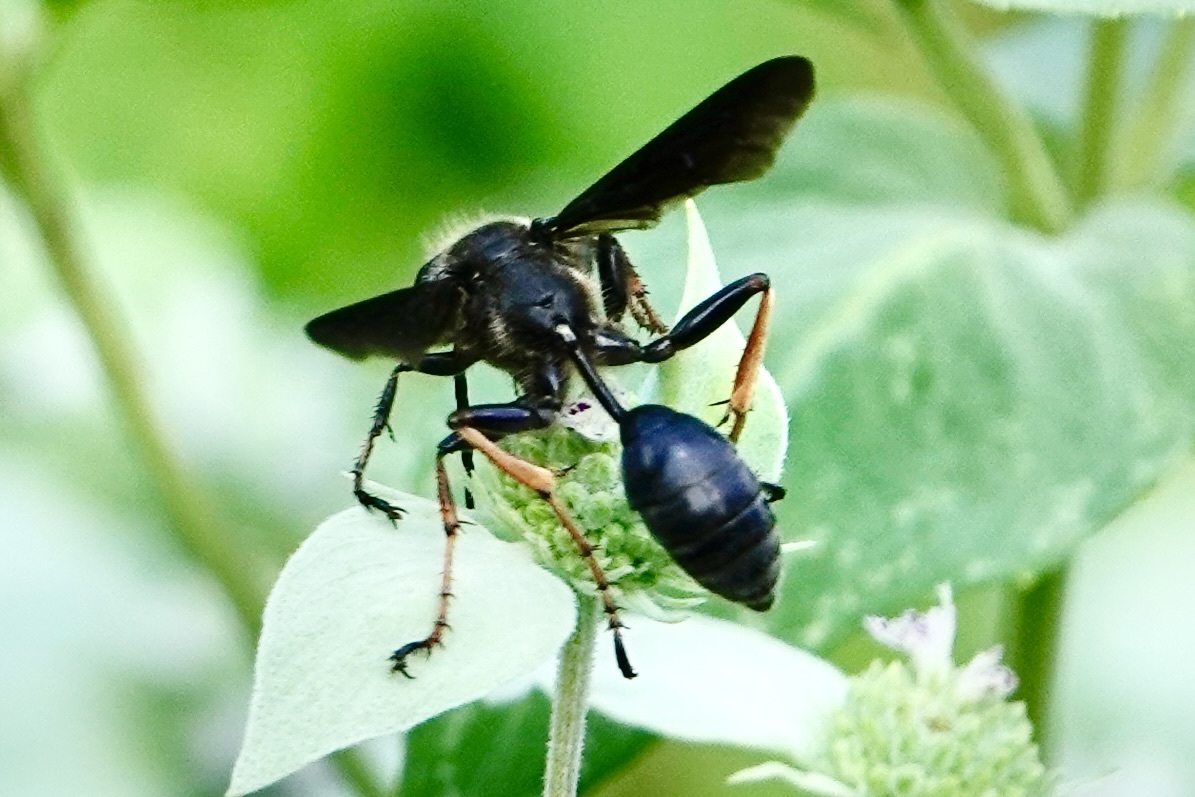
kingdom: Animalia
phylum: Arthropoda
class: Insecta
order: Hymenoptera
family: Sphecidae
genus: Isodontia
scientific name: Isodontia auripes
